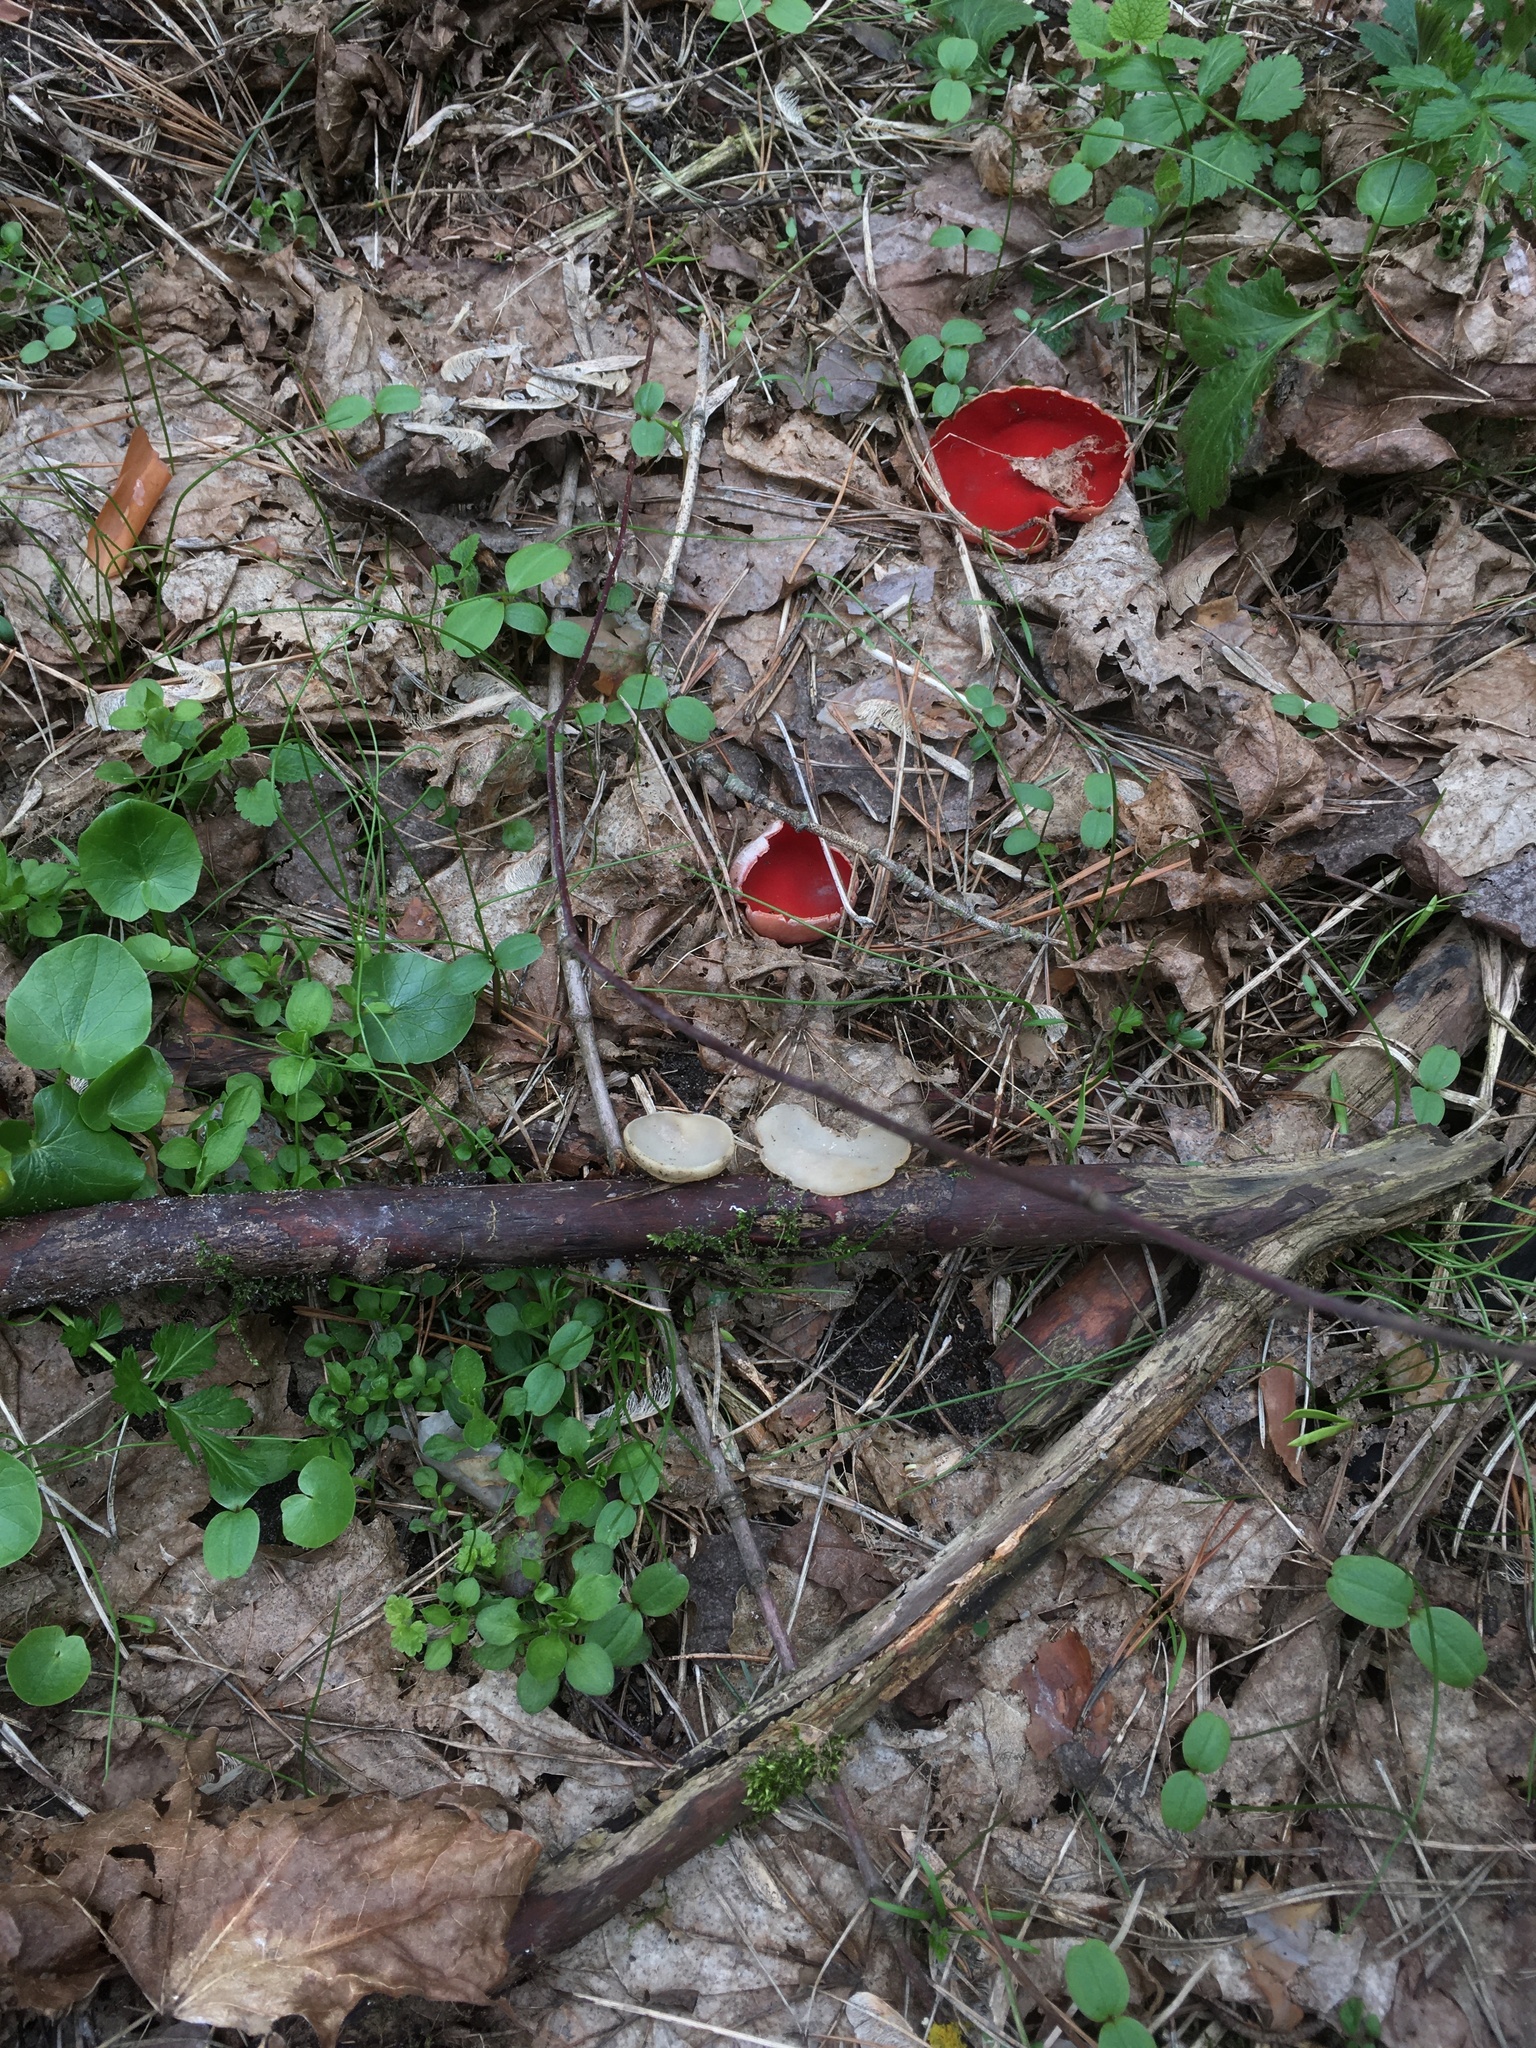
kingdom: Fungi
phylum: Ascomycota
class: Pezizomycetes
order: Pezizales
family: Sarcoscyphaceae
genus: Sarcoscypha
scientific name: Sarcoscypha
